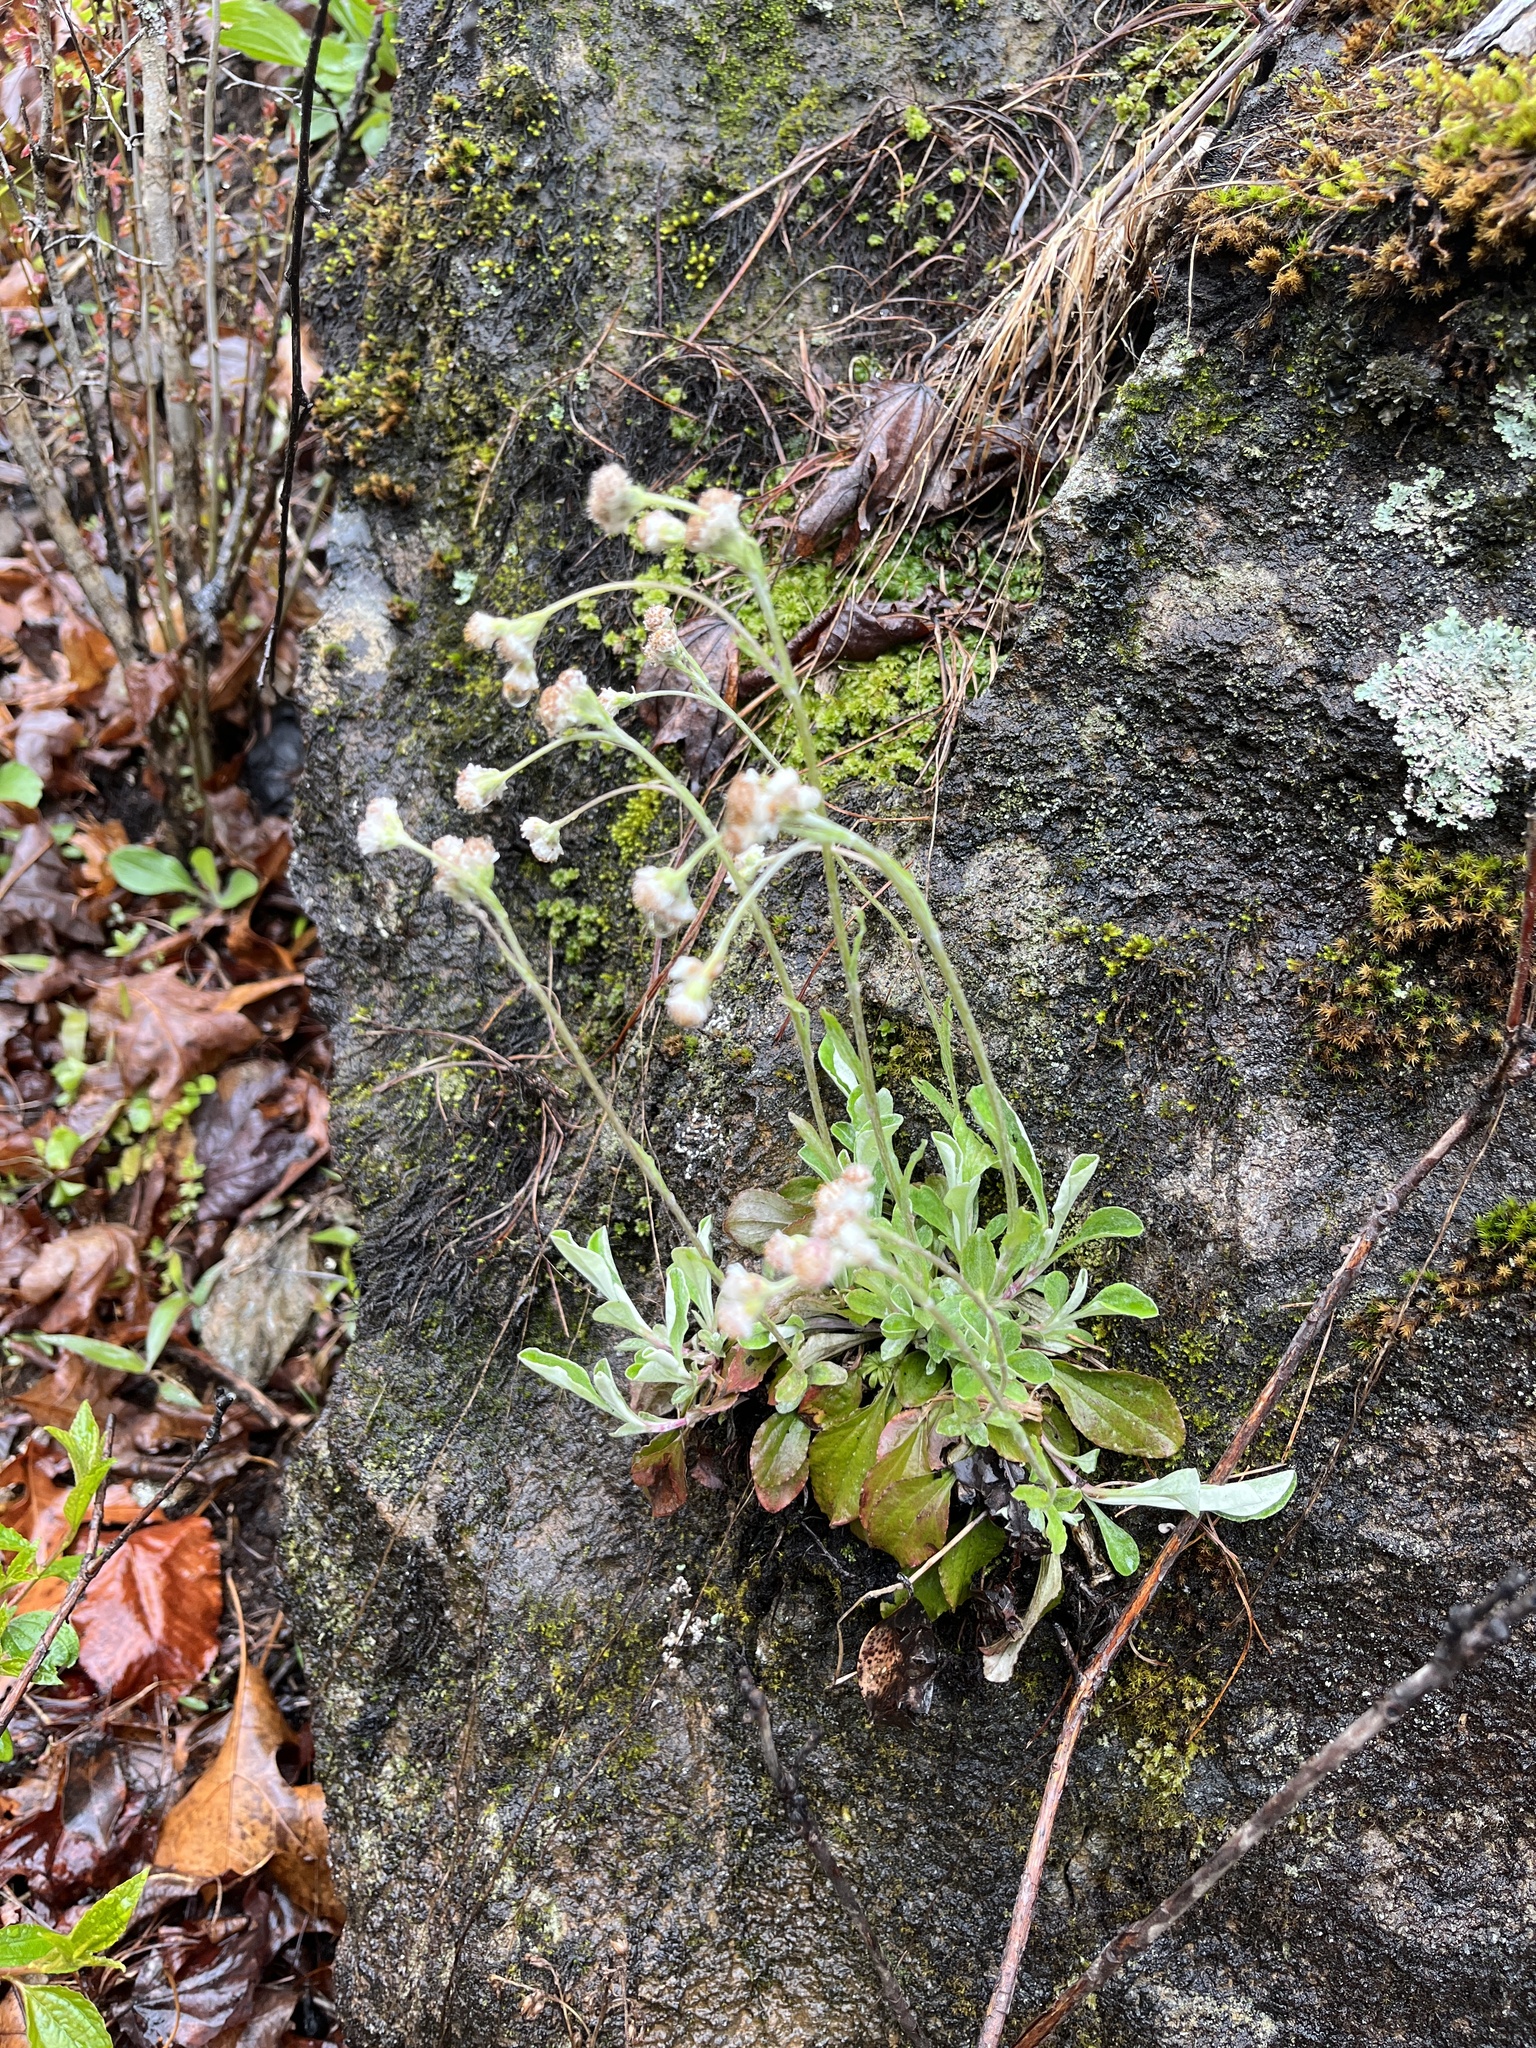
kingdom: Plantae
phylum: Tracheophyta
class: Magnoliopsida
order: Asterales
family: Asteraceae
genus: Antennaria
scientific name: Antennaria plantaginifolia
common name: Plantain-leaved pussytoes
